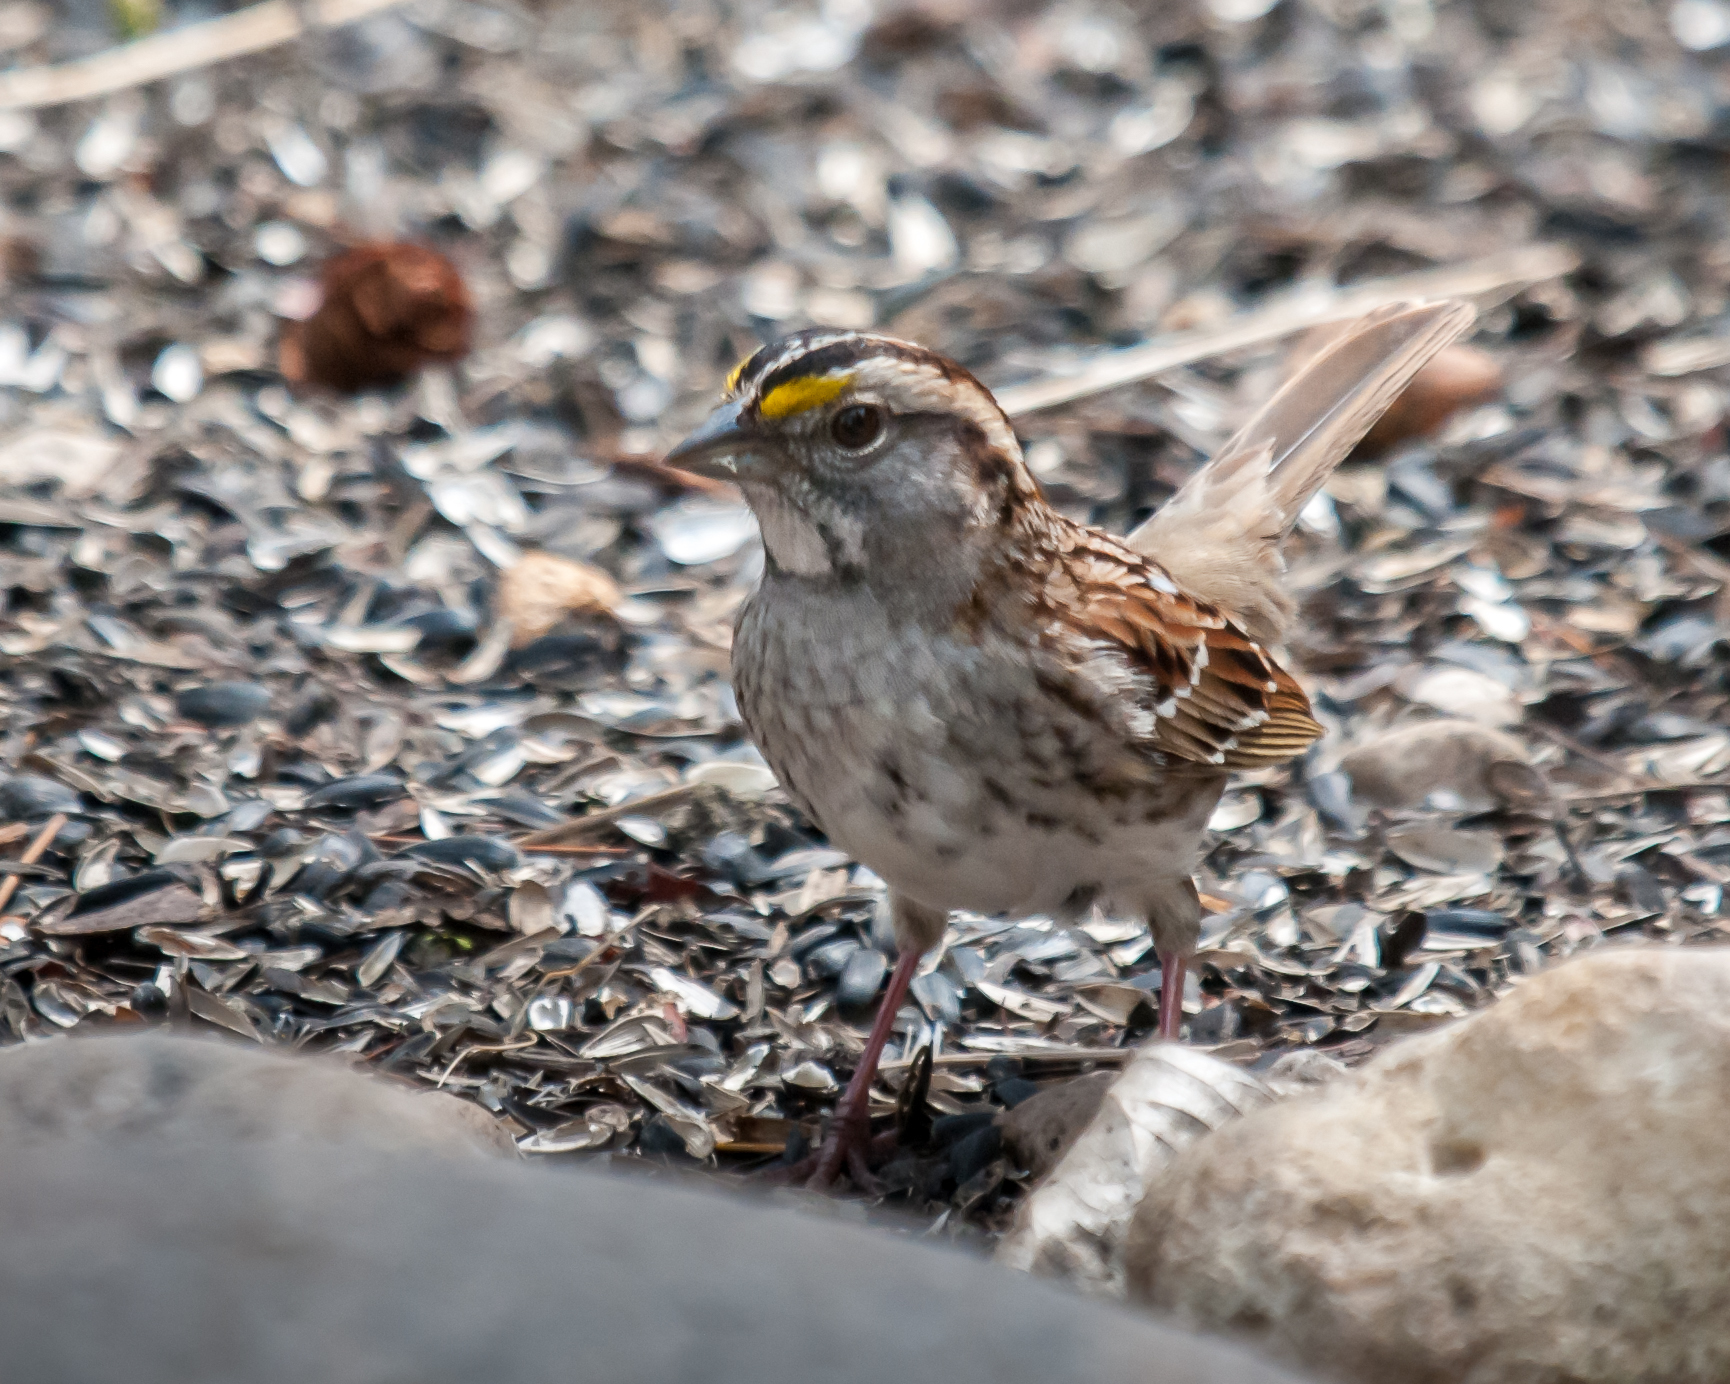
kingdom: Animalia
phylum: Chordata
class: Aves
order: Passeriformes
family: Passerellidae
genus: Zonotrichia
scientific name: Zonotrichia albicollis
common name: White-throated sparrow
